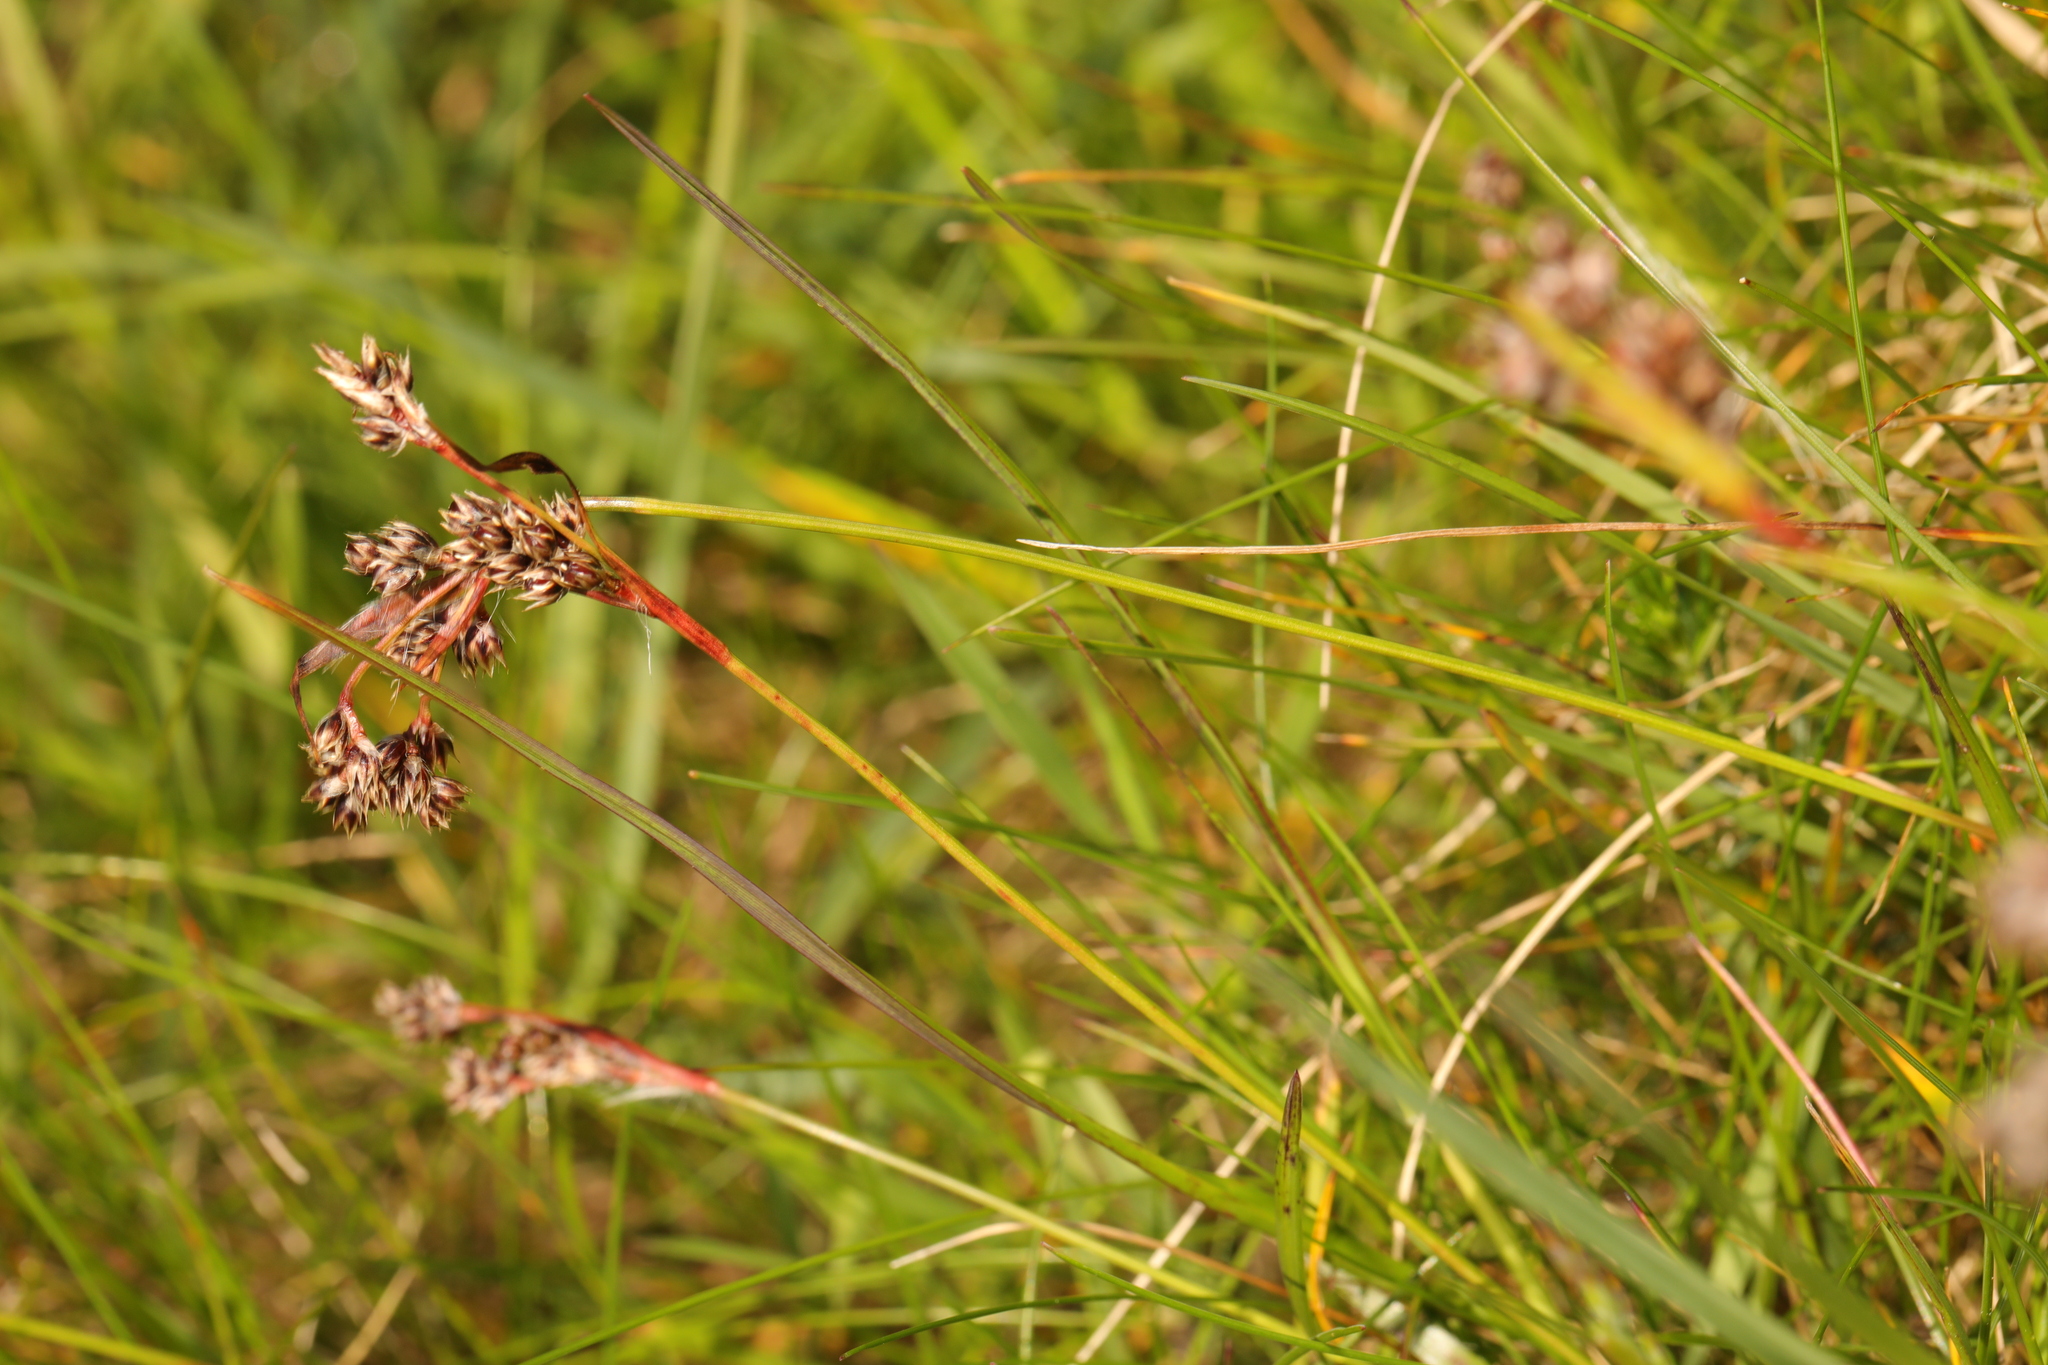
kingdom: Plantae
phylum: Tracheophyta
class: Liliopsida
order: Poales
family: Juncaceae
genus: Luzula
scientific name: Luzula campestris
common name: Field wood-rush
